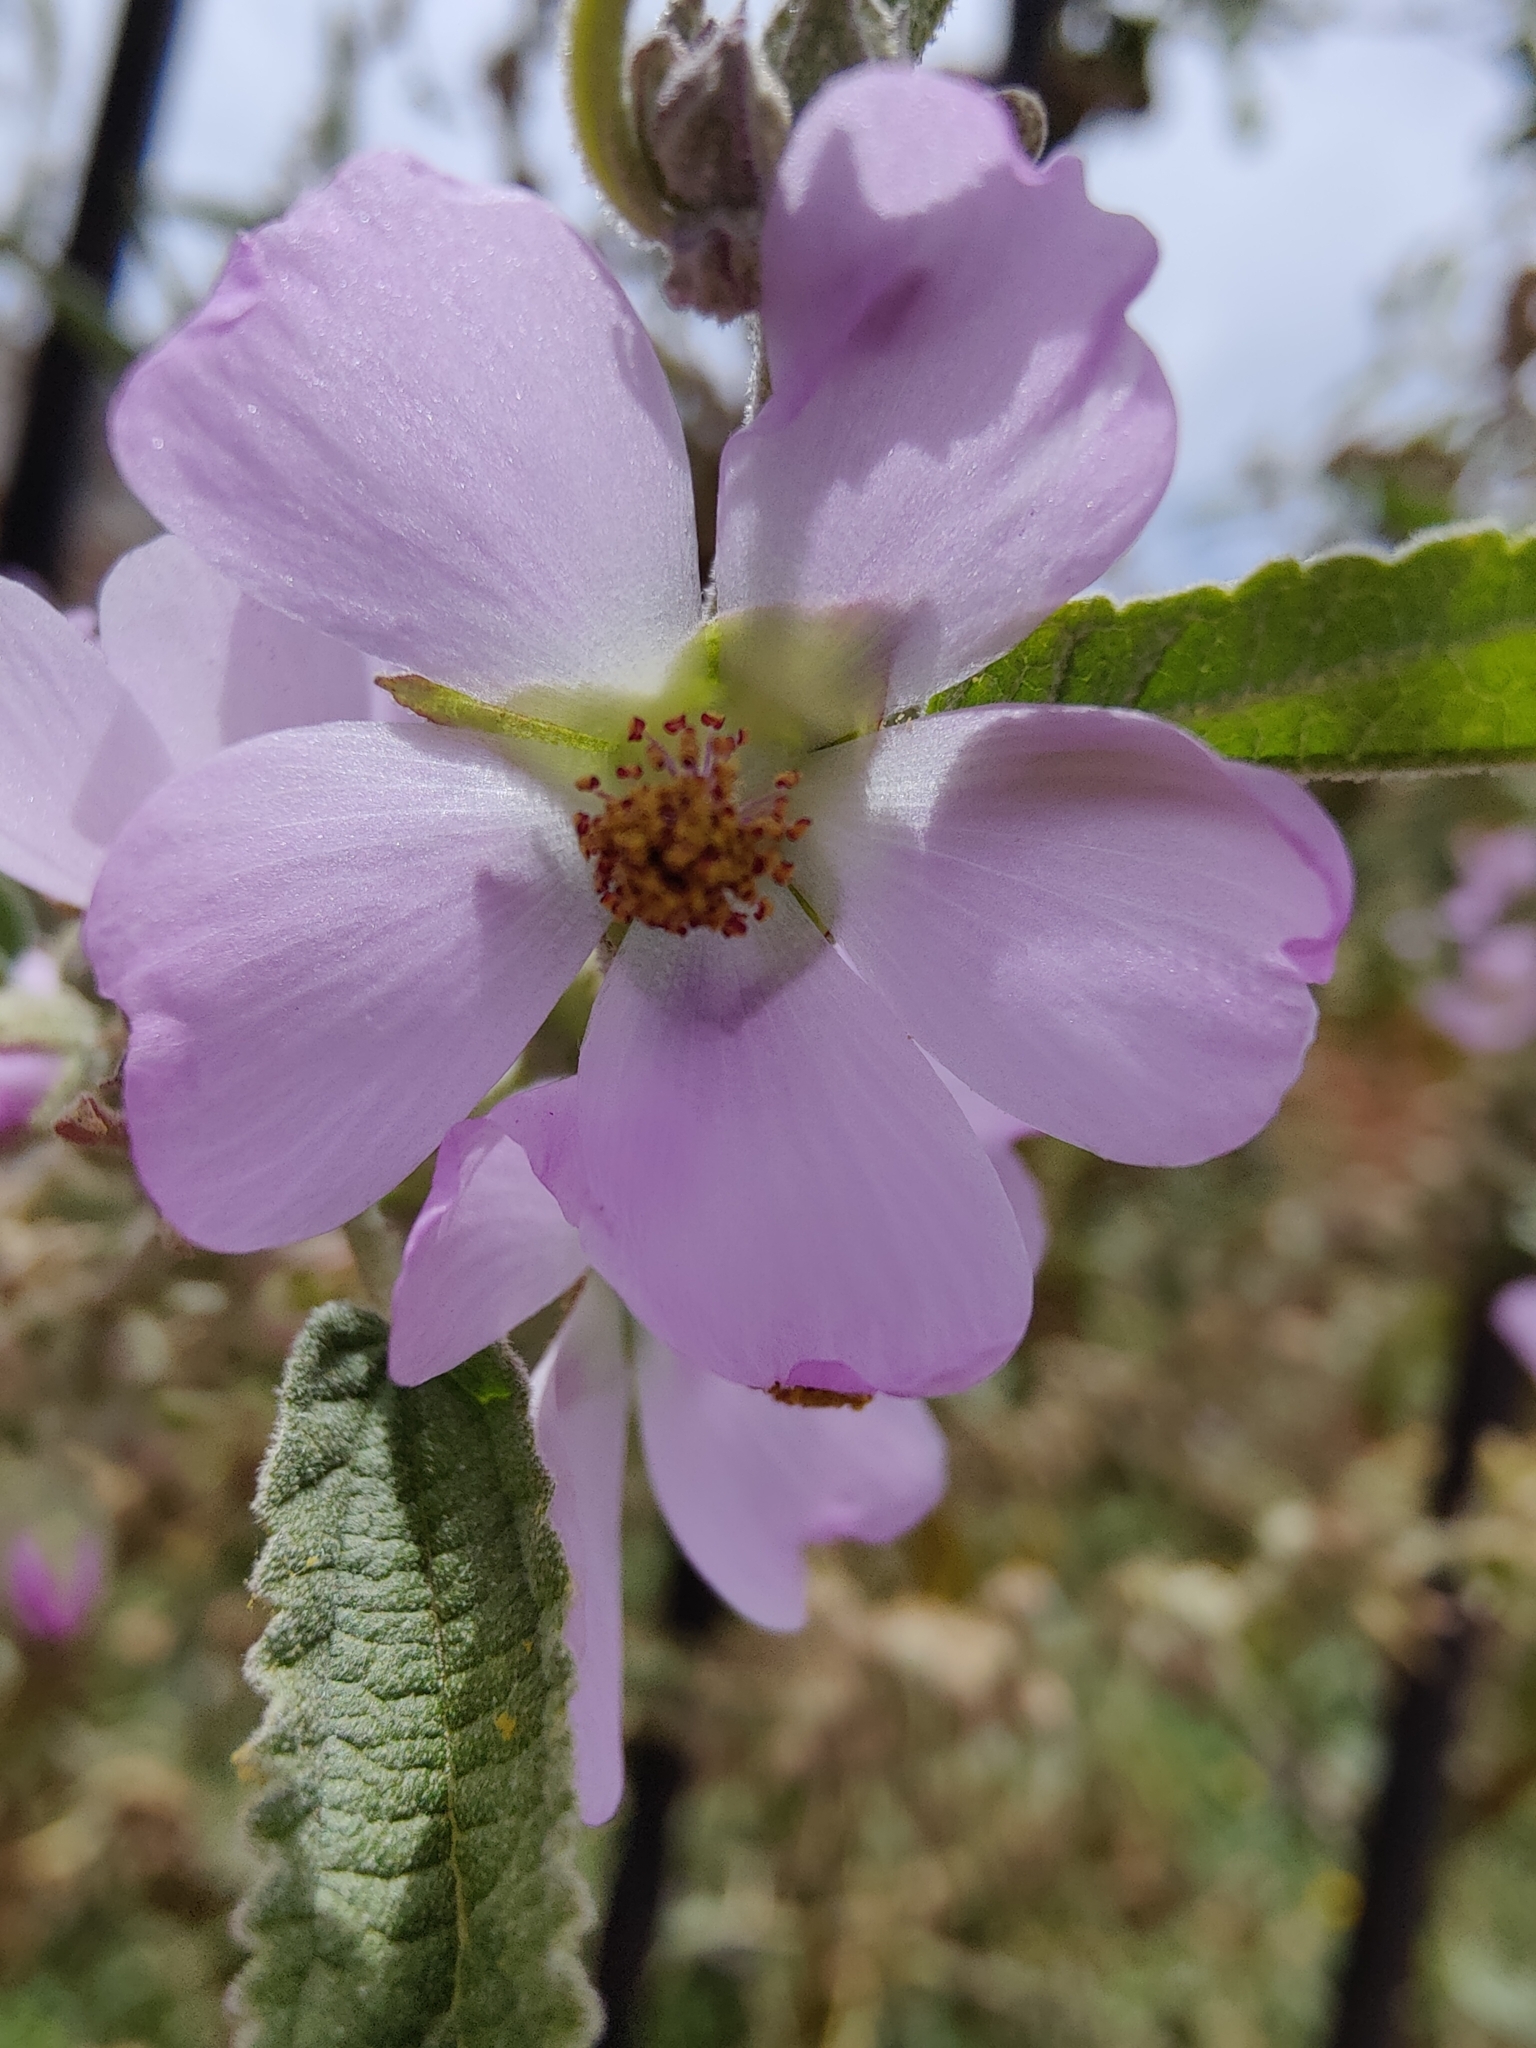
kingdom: Plantae
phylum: Tracheophyta
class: Magnoliopsida
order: Malvales
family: Malvaceae
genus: Sphaeralcea
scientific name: Sphaeralcea angustifolia
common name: Copper globe-mallow
